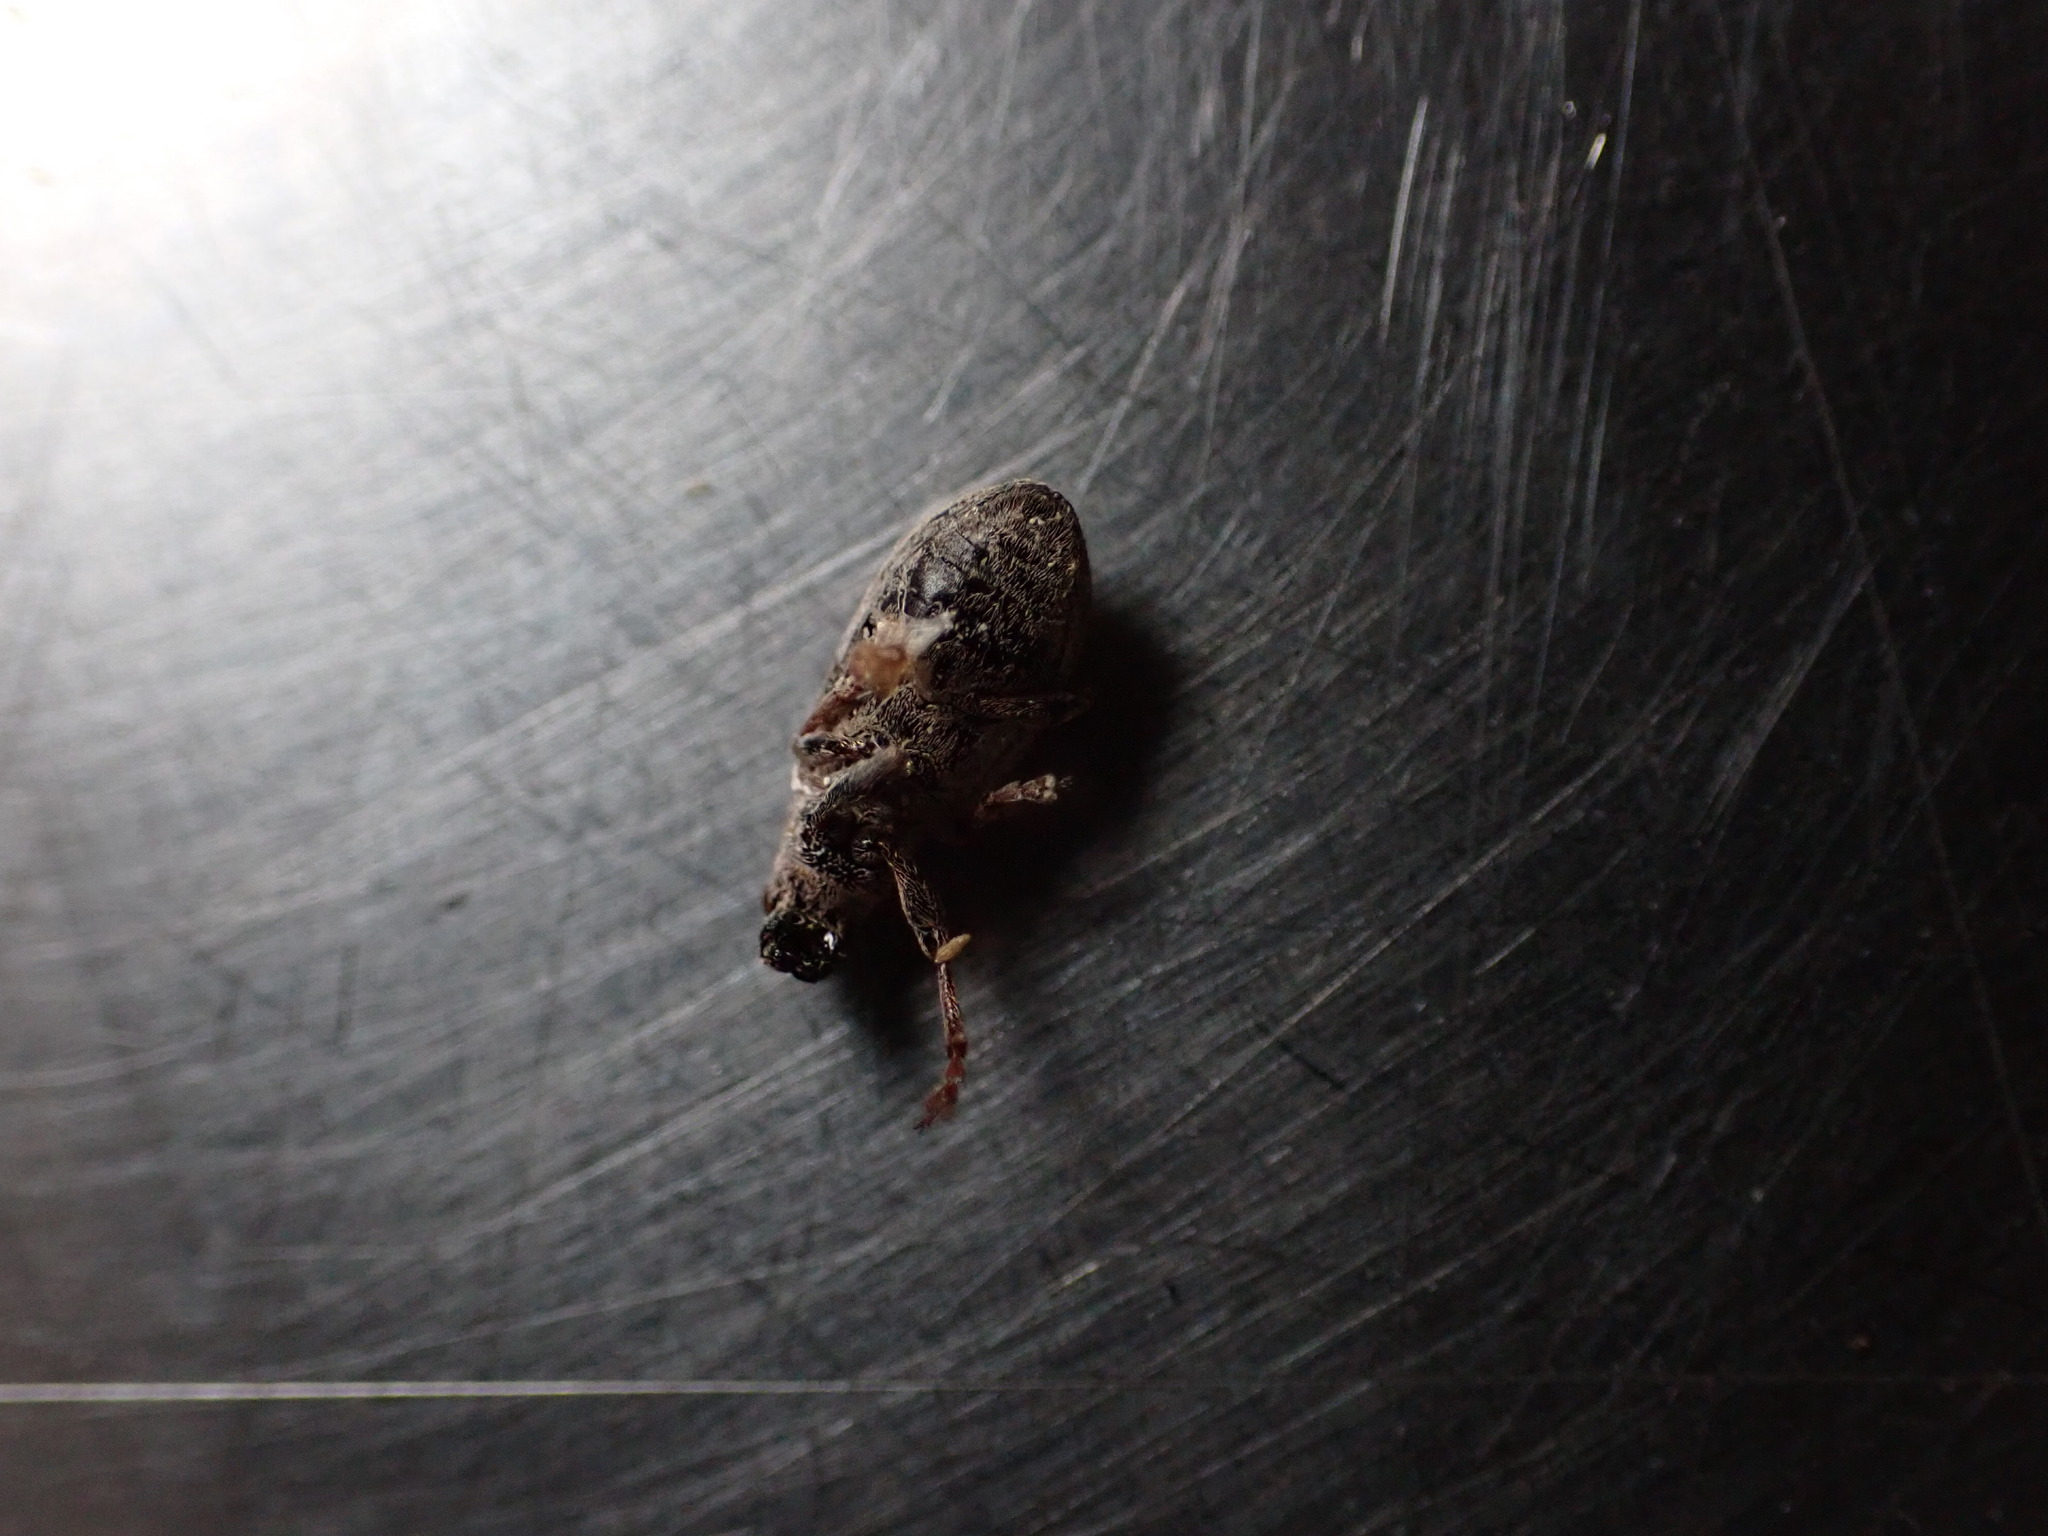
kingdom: Animalia
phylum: Arthropoda
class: Insecta
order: Coleoptera
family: Curculionidae
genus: Sitona
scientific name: Sitona obsoletus
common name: Weevil
